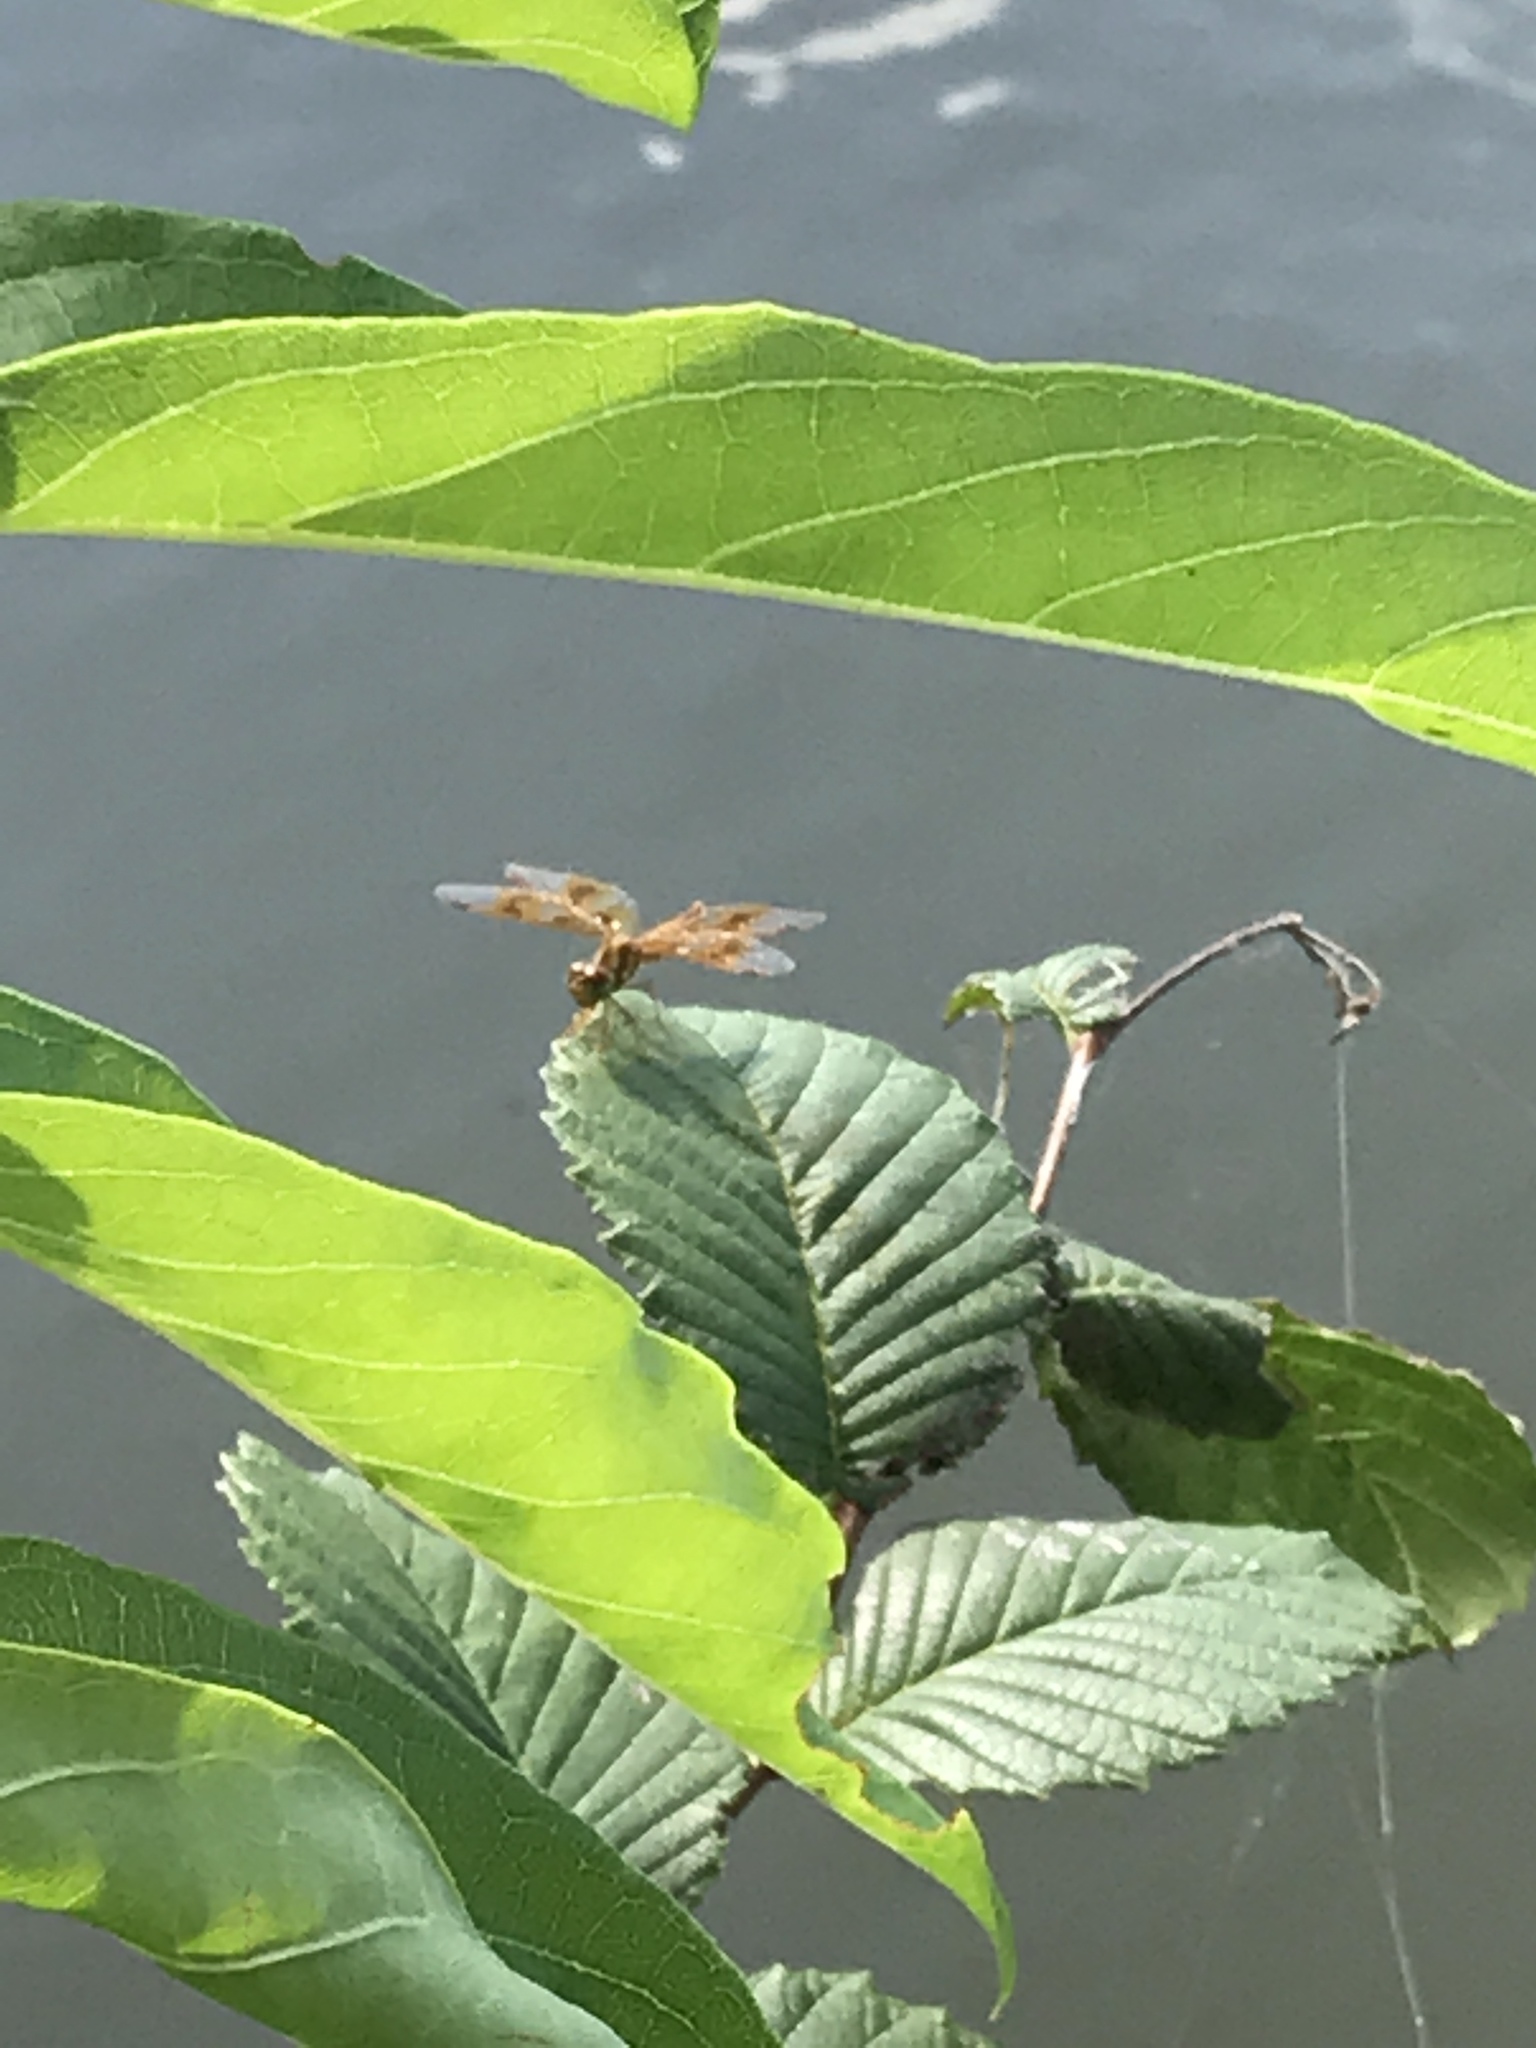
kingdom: Animalia
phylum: Arthropoda
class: Insecta
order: Odonata
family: Libellulidae
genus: Perithemis
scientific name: Perithemis tenera
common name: Eastern amberwing
